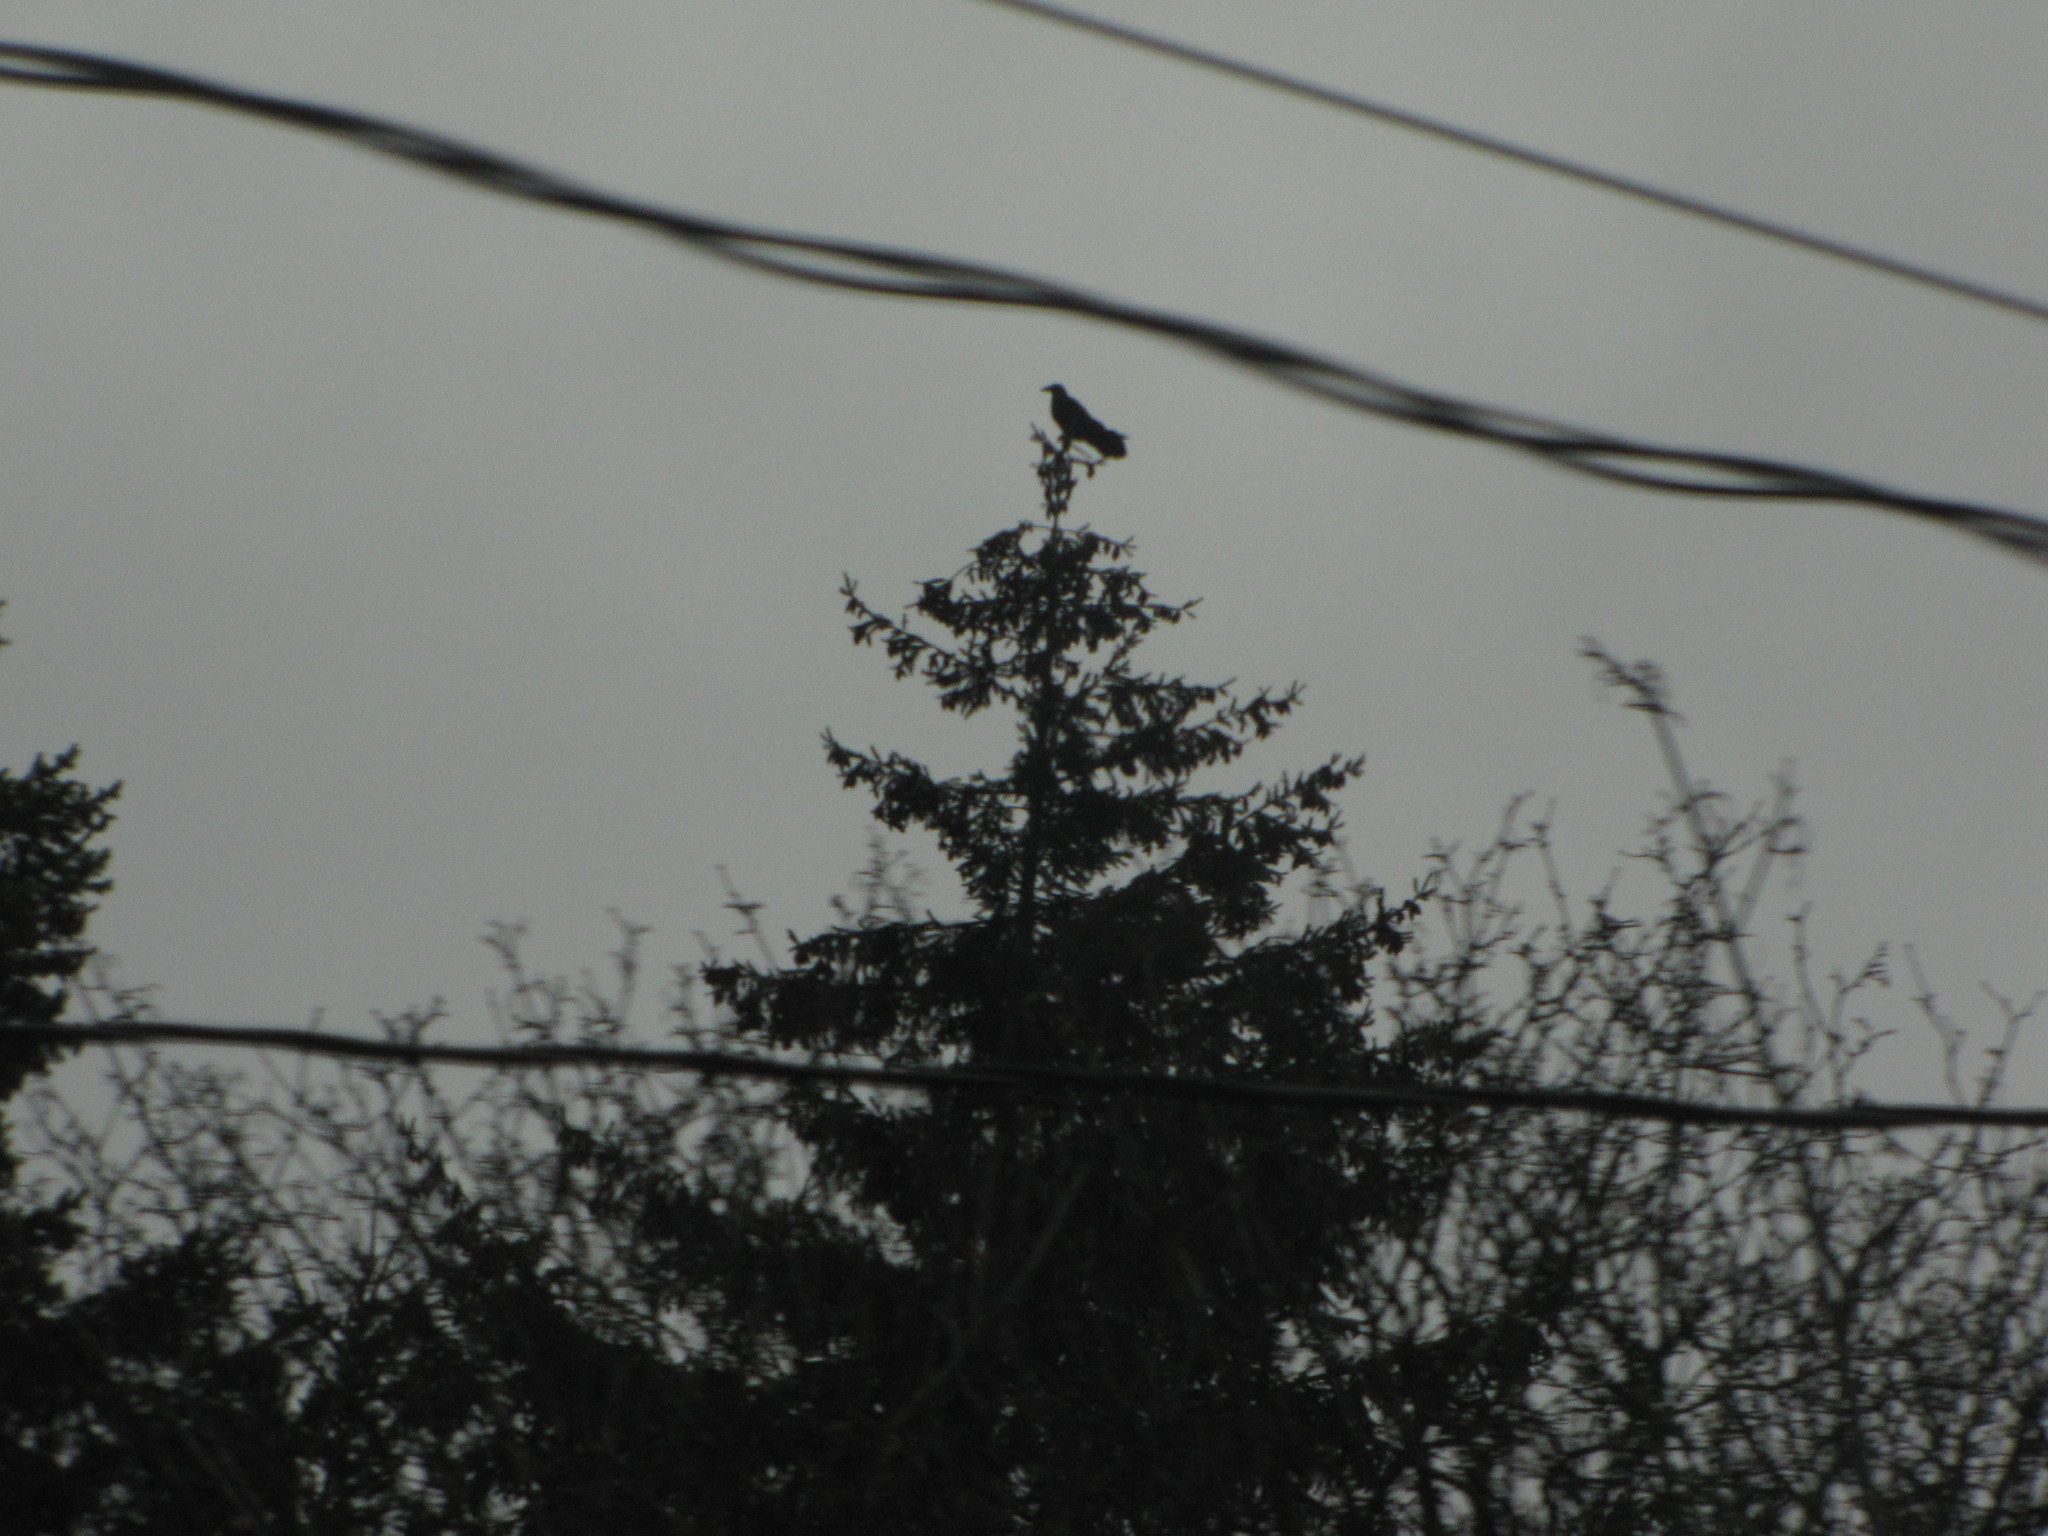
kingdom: Animalia
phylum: Chordata
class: Aves
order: Passeriformes
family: Corvidae
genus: Corvus
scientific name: Corvus corax
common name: Common raven
